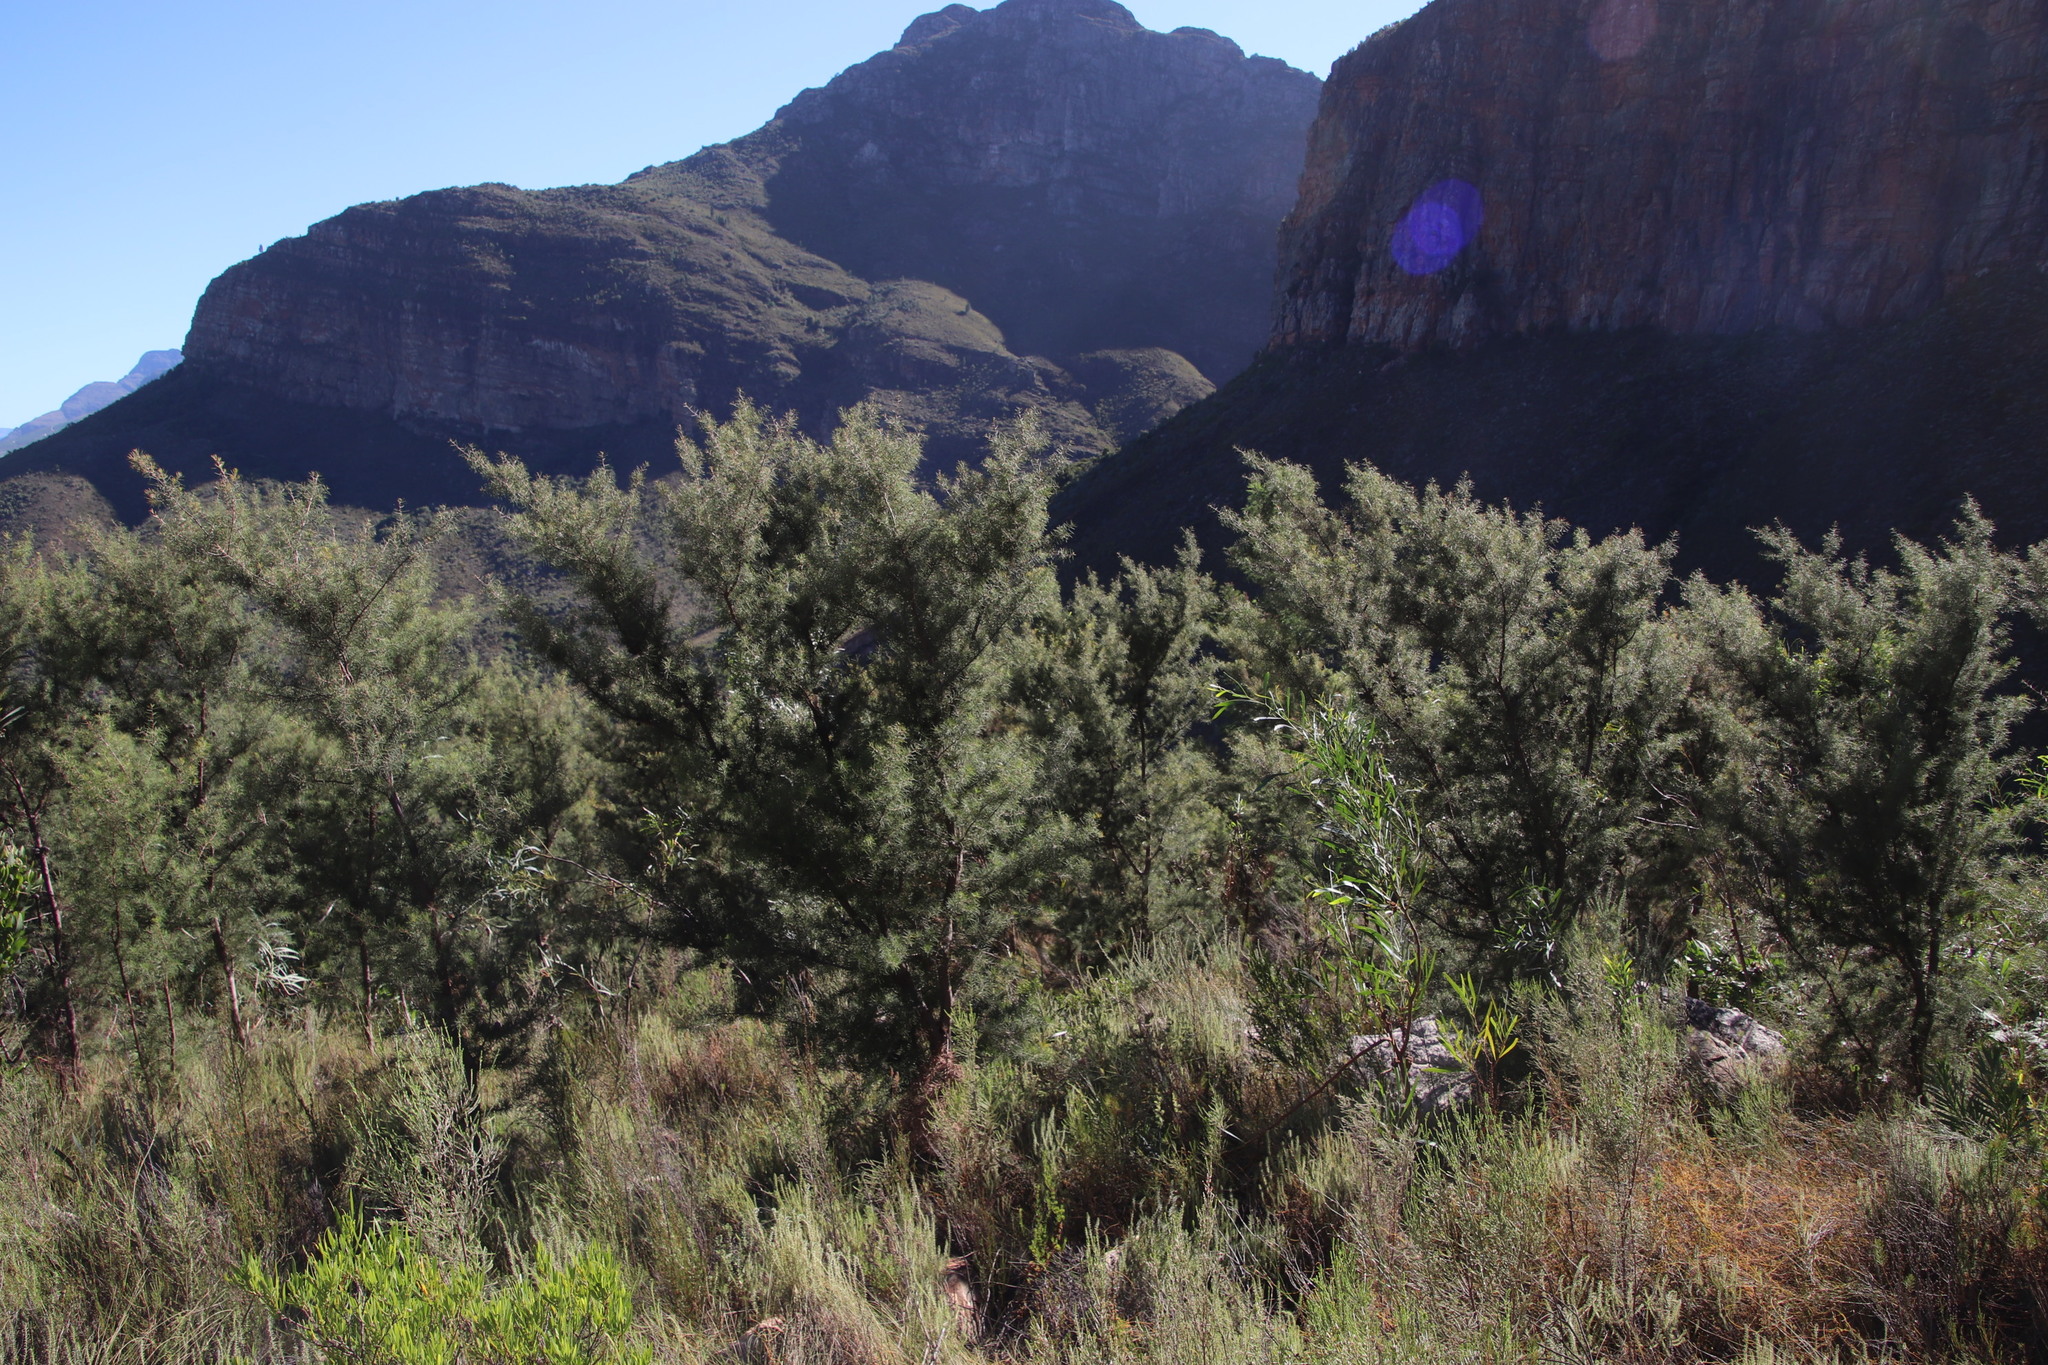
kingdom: Plantae
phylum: Tracheophyta
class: Magnoliopsida
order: Proteales
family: Proteaceae
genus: Hakea
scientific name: Hakea sericea
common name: Needle bush
